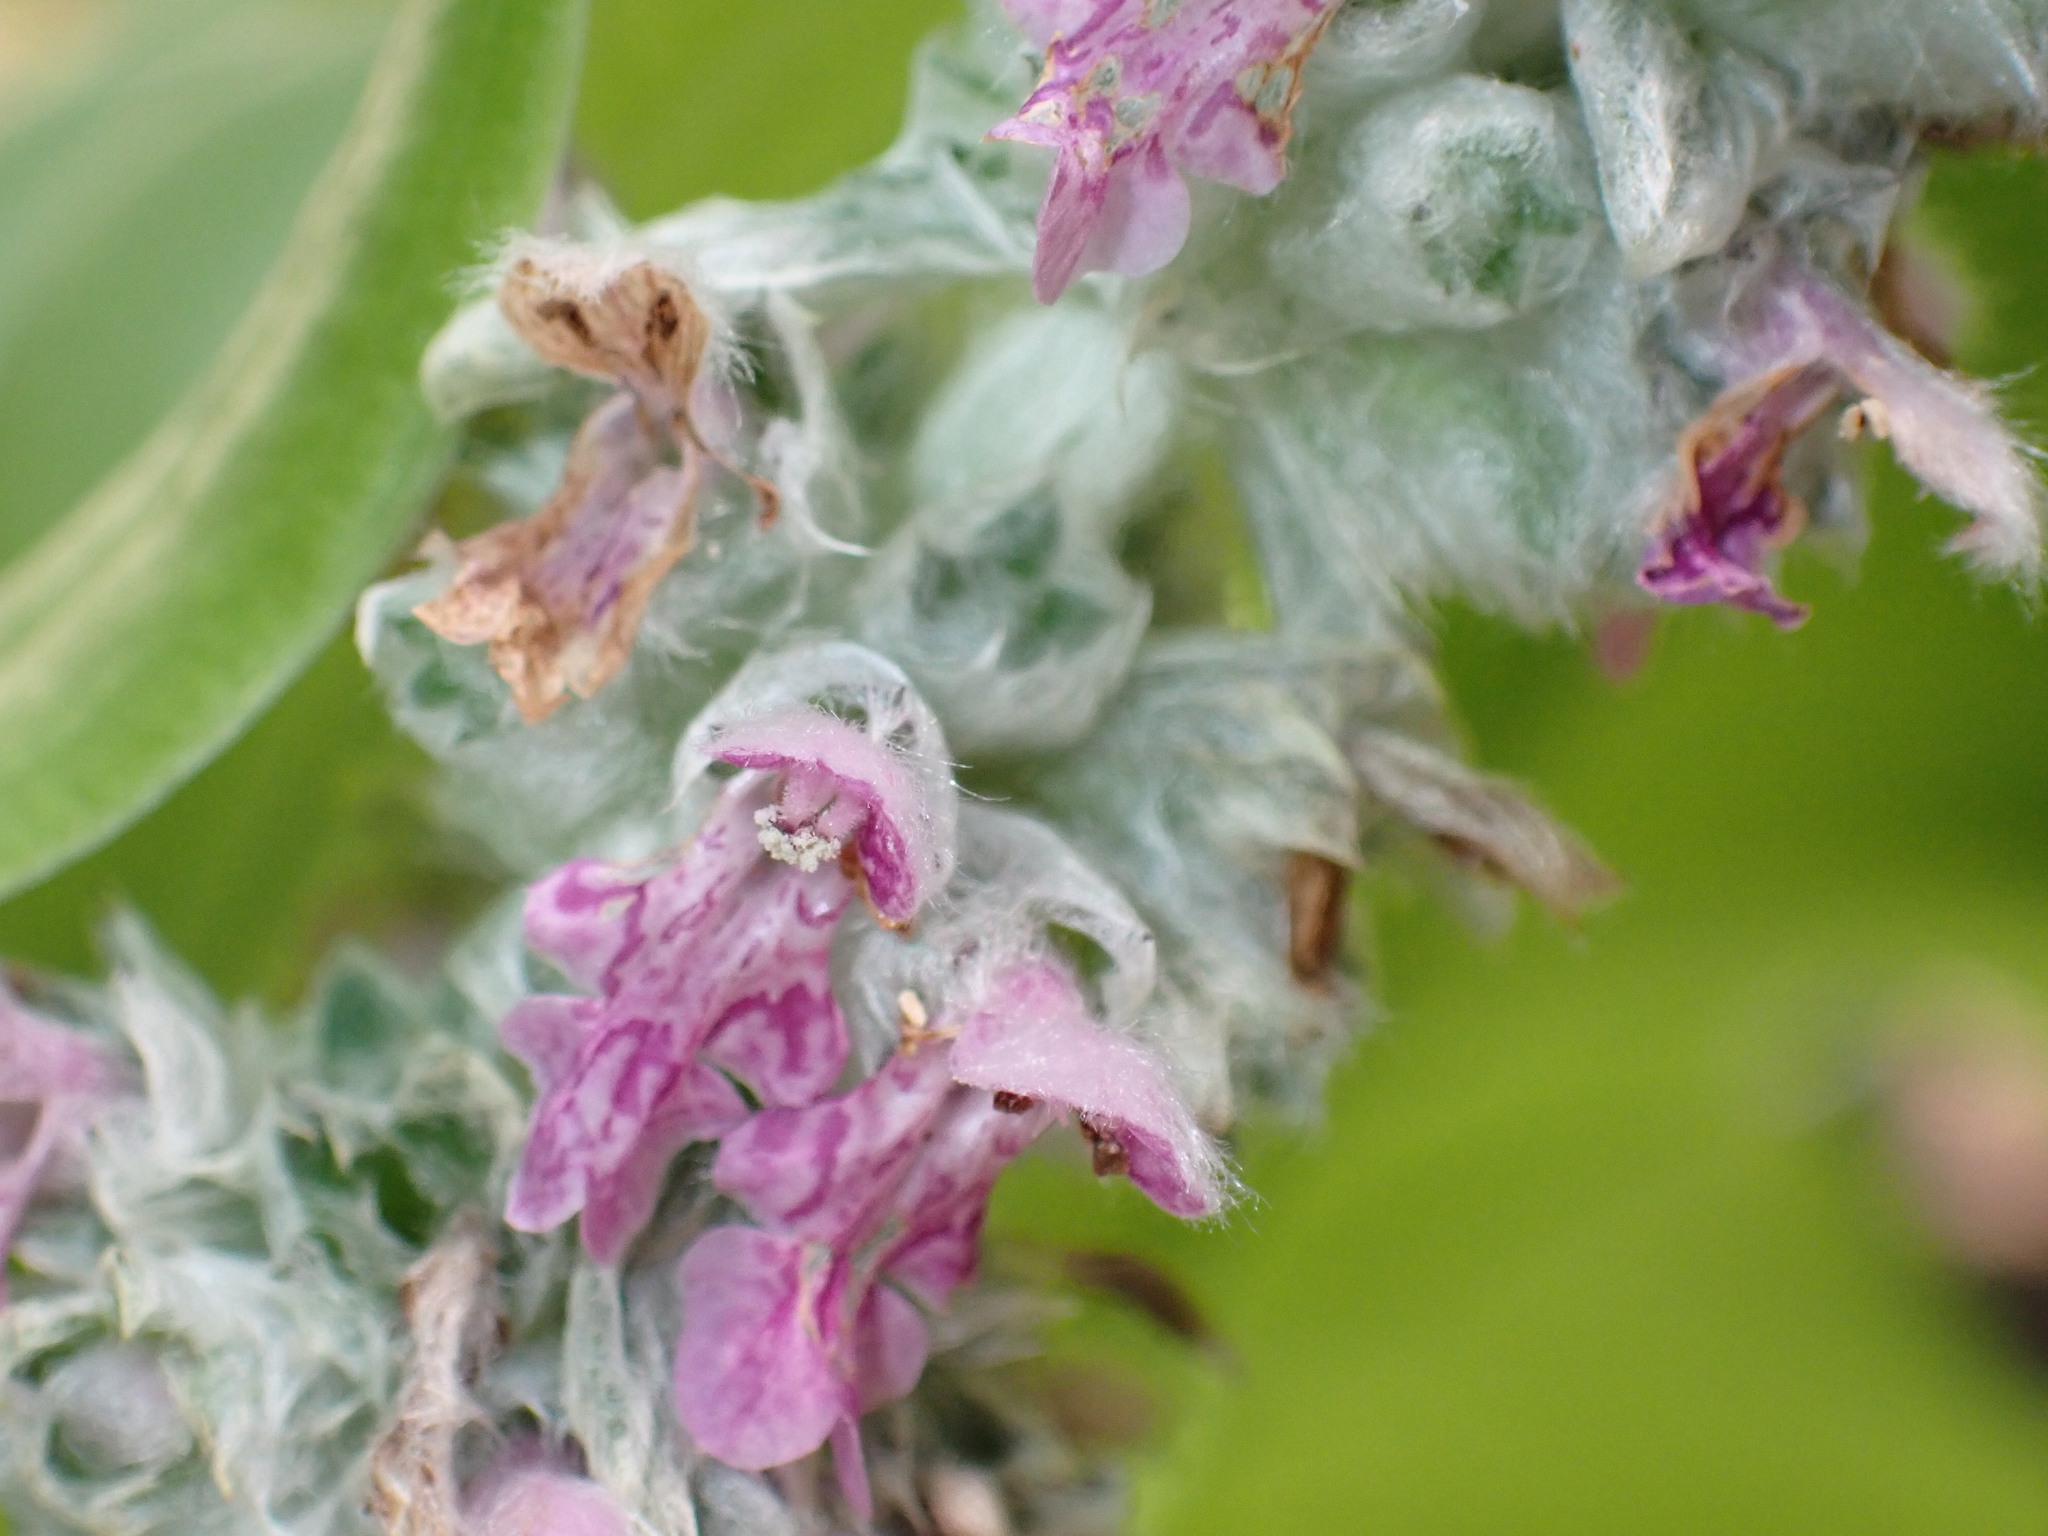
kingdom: Plantae
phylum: Tracheophyta
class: Magnoliopsida
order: Lamiales
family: Lamiaceae
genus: Stachys
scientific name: Stachys byzantina
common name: Lamb's-ear
